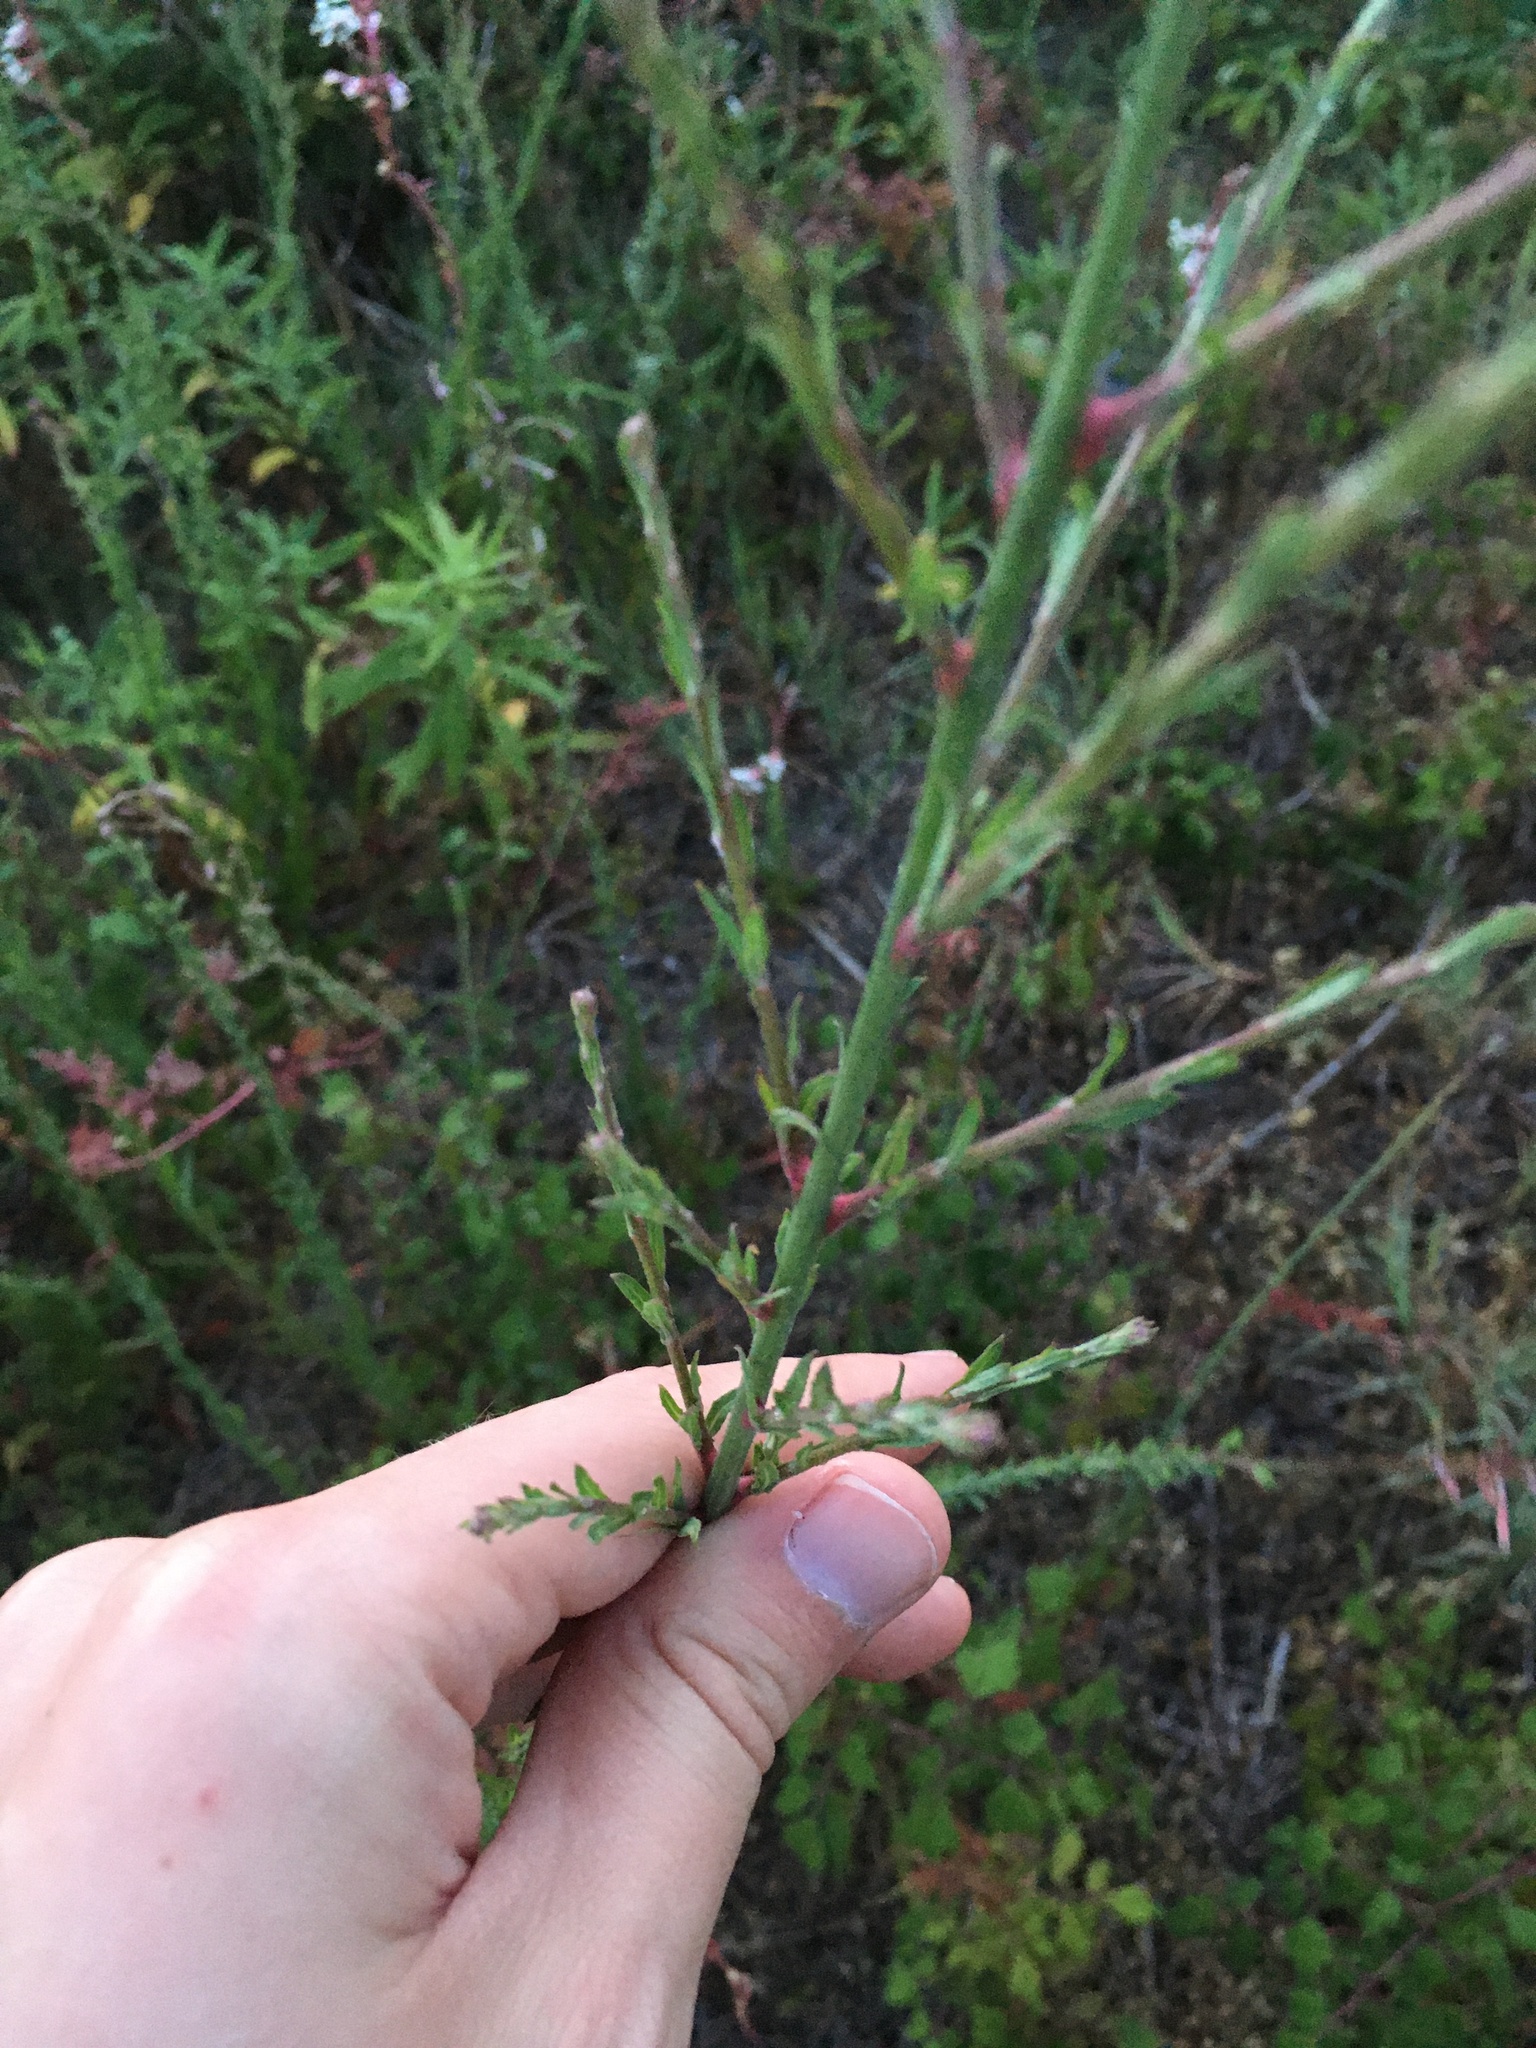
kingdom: Plantae
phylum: Tracheophyta
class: Magnoliopsida
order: Myrtales
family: Onagraceae
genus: Oenothera
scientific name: Oenothera simulans
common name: Southern beeblossom
